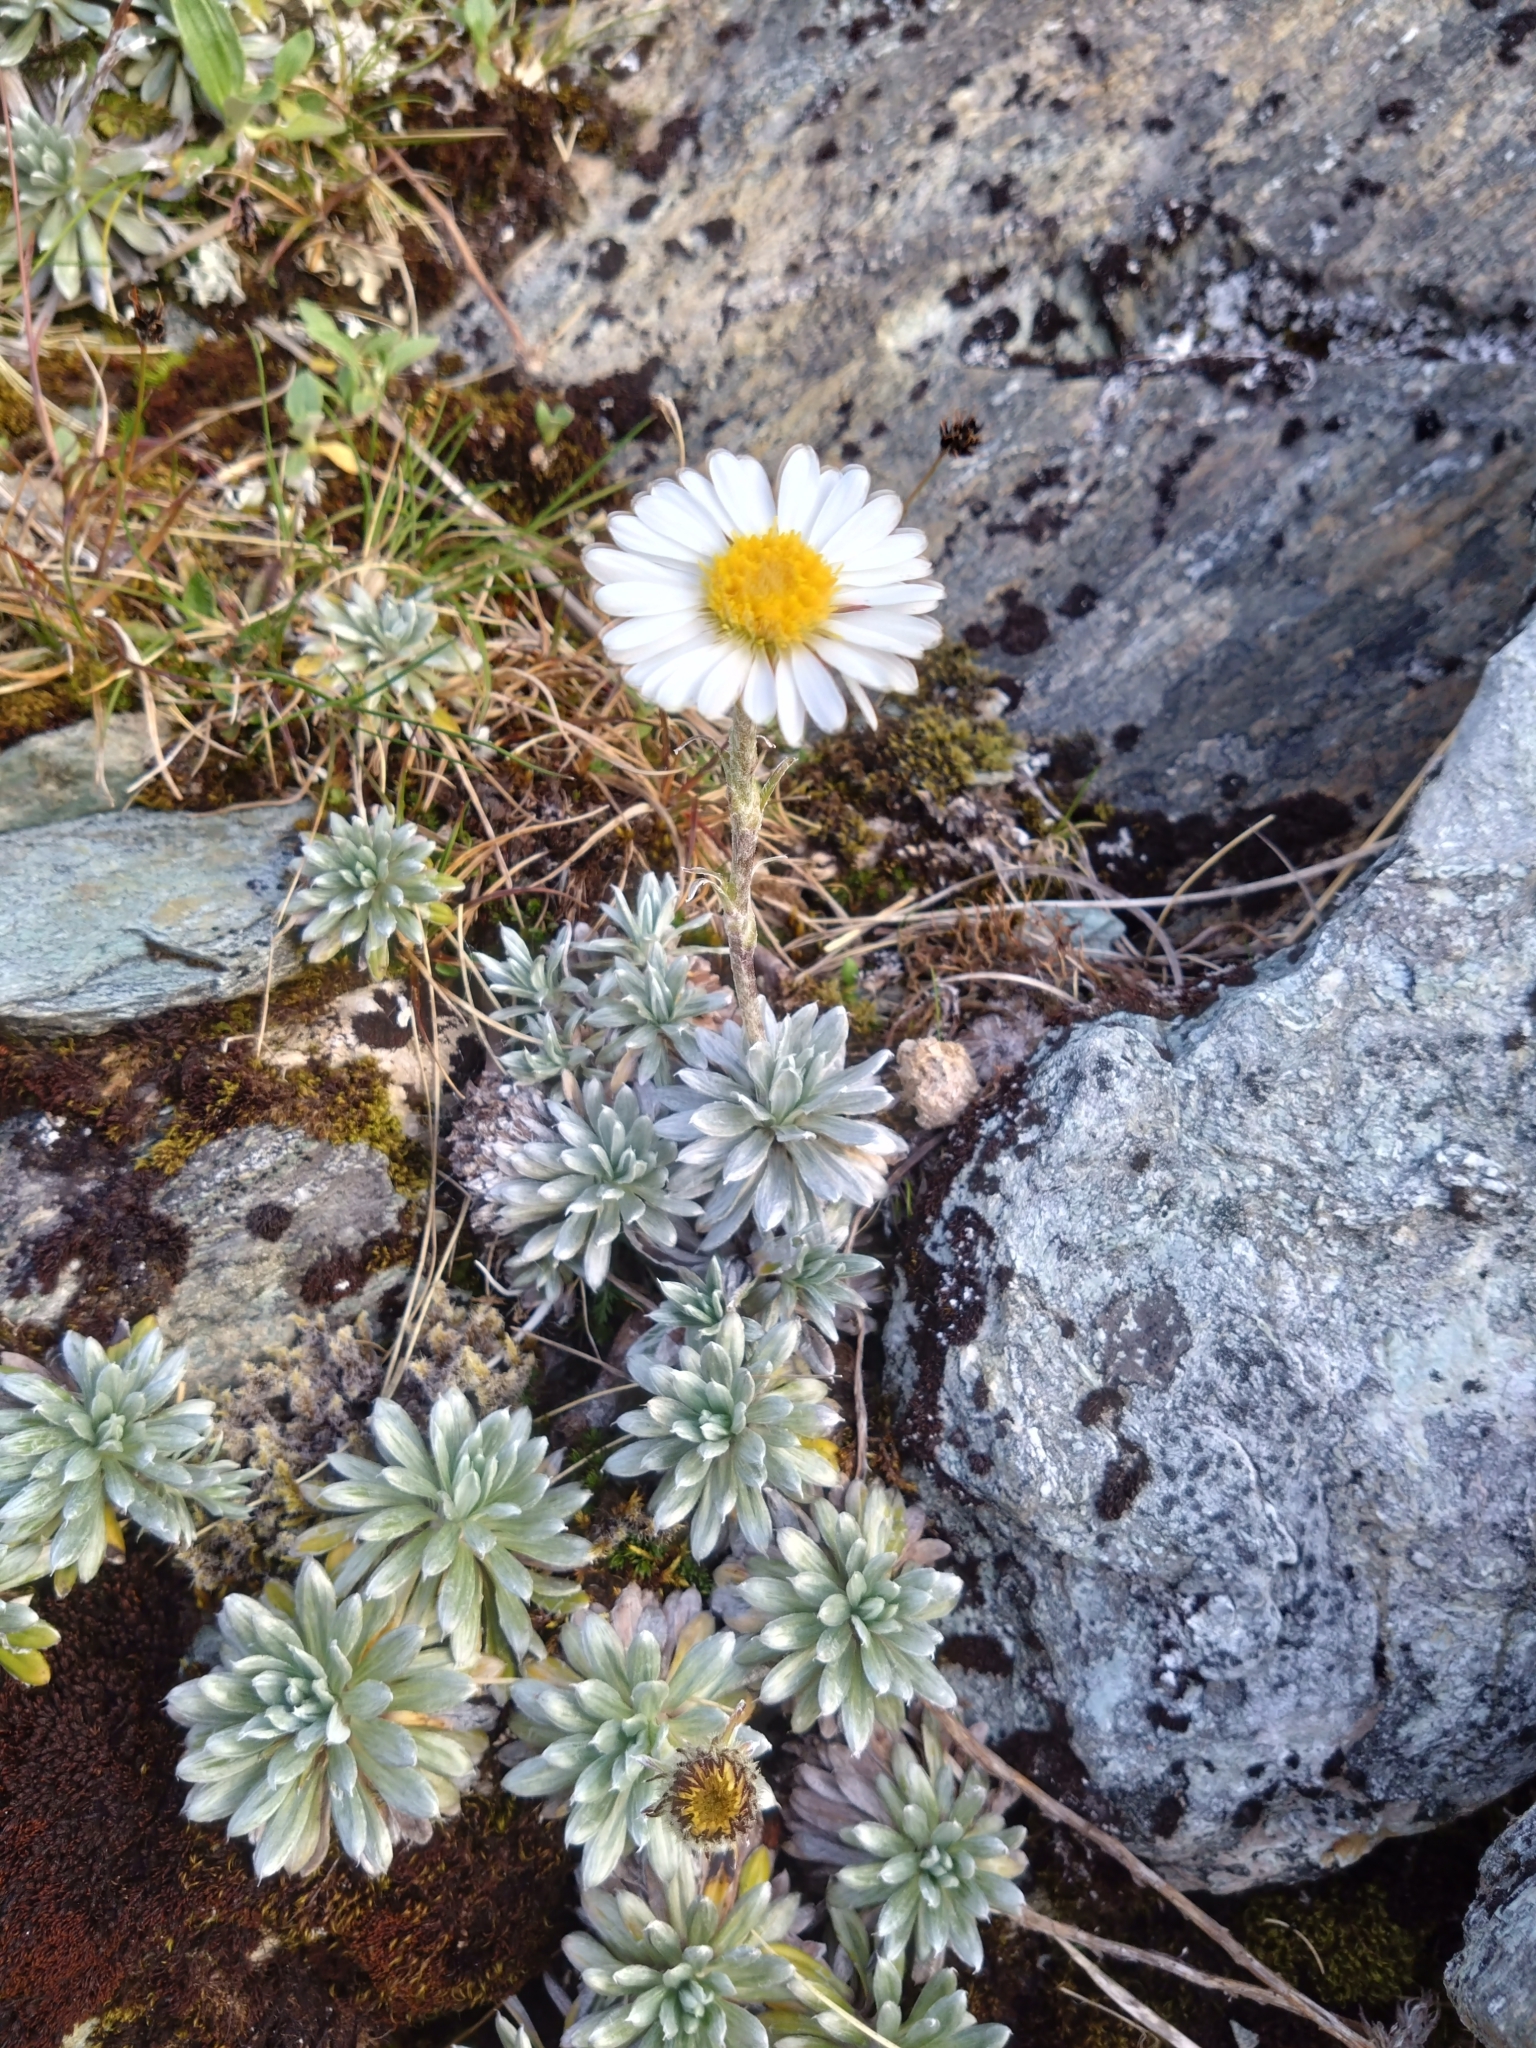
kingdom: Plantae
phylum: Tracheophyta
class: Magnoliopsida
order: Asterales
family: Asteraceae
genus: Celmisia
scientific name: Celmisia hectorii
